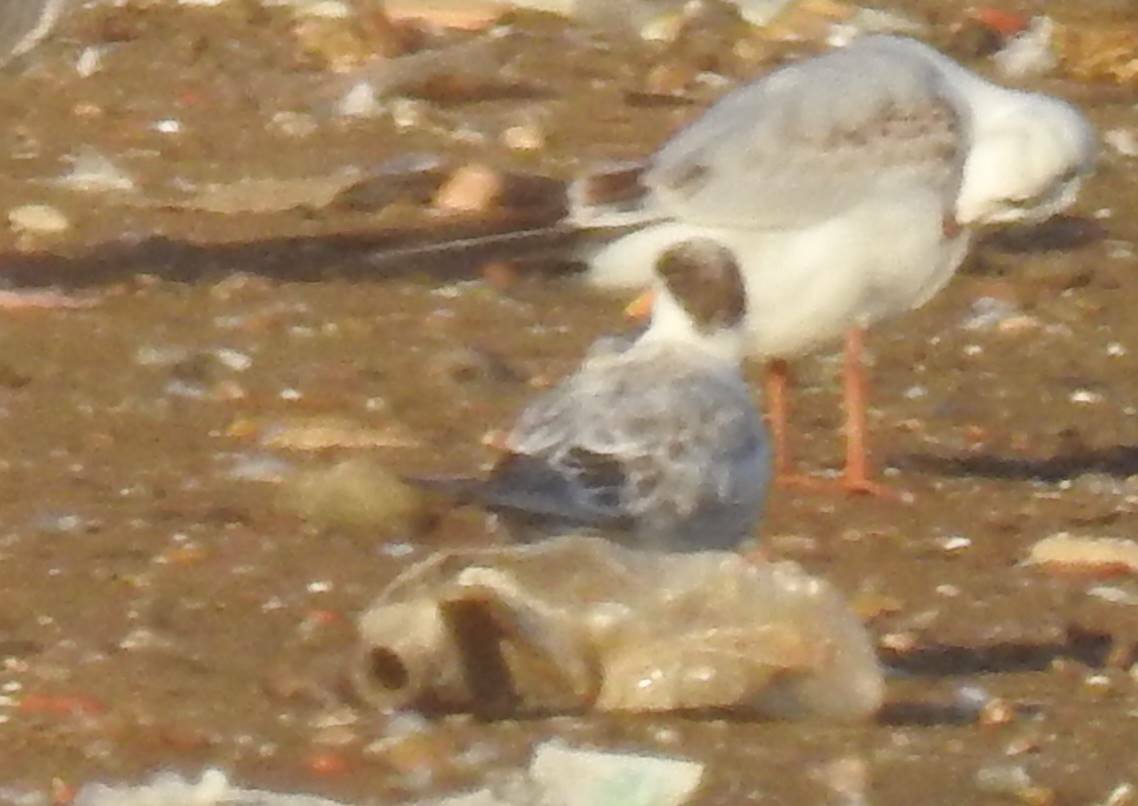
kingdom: Animalia
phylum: Chordata
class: Aves
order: Charadriiformes
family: Laridae
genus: Chroicocephalus
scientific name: Chroicocephalus ridibundus
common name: Black-headed gull
